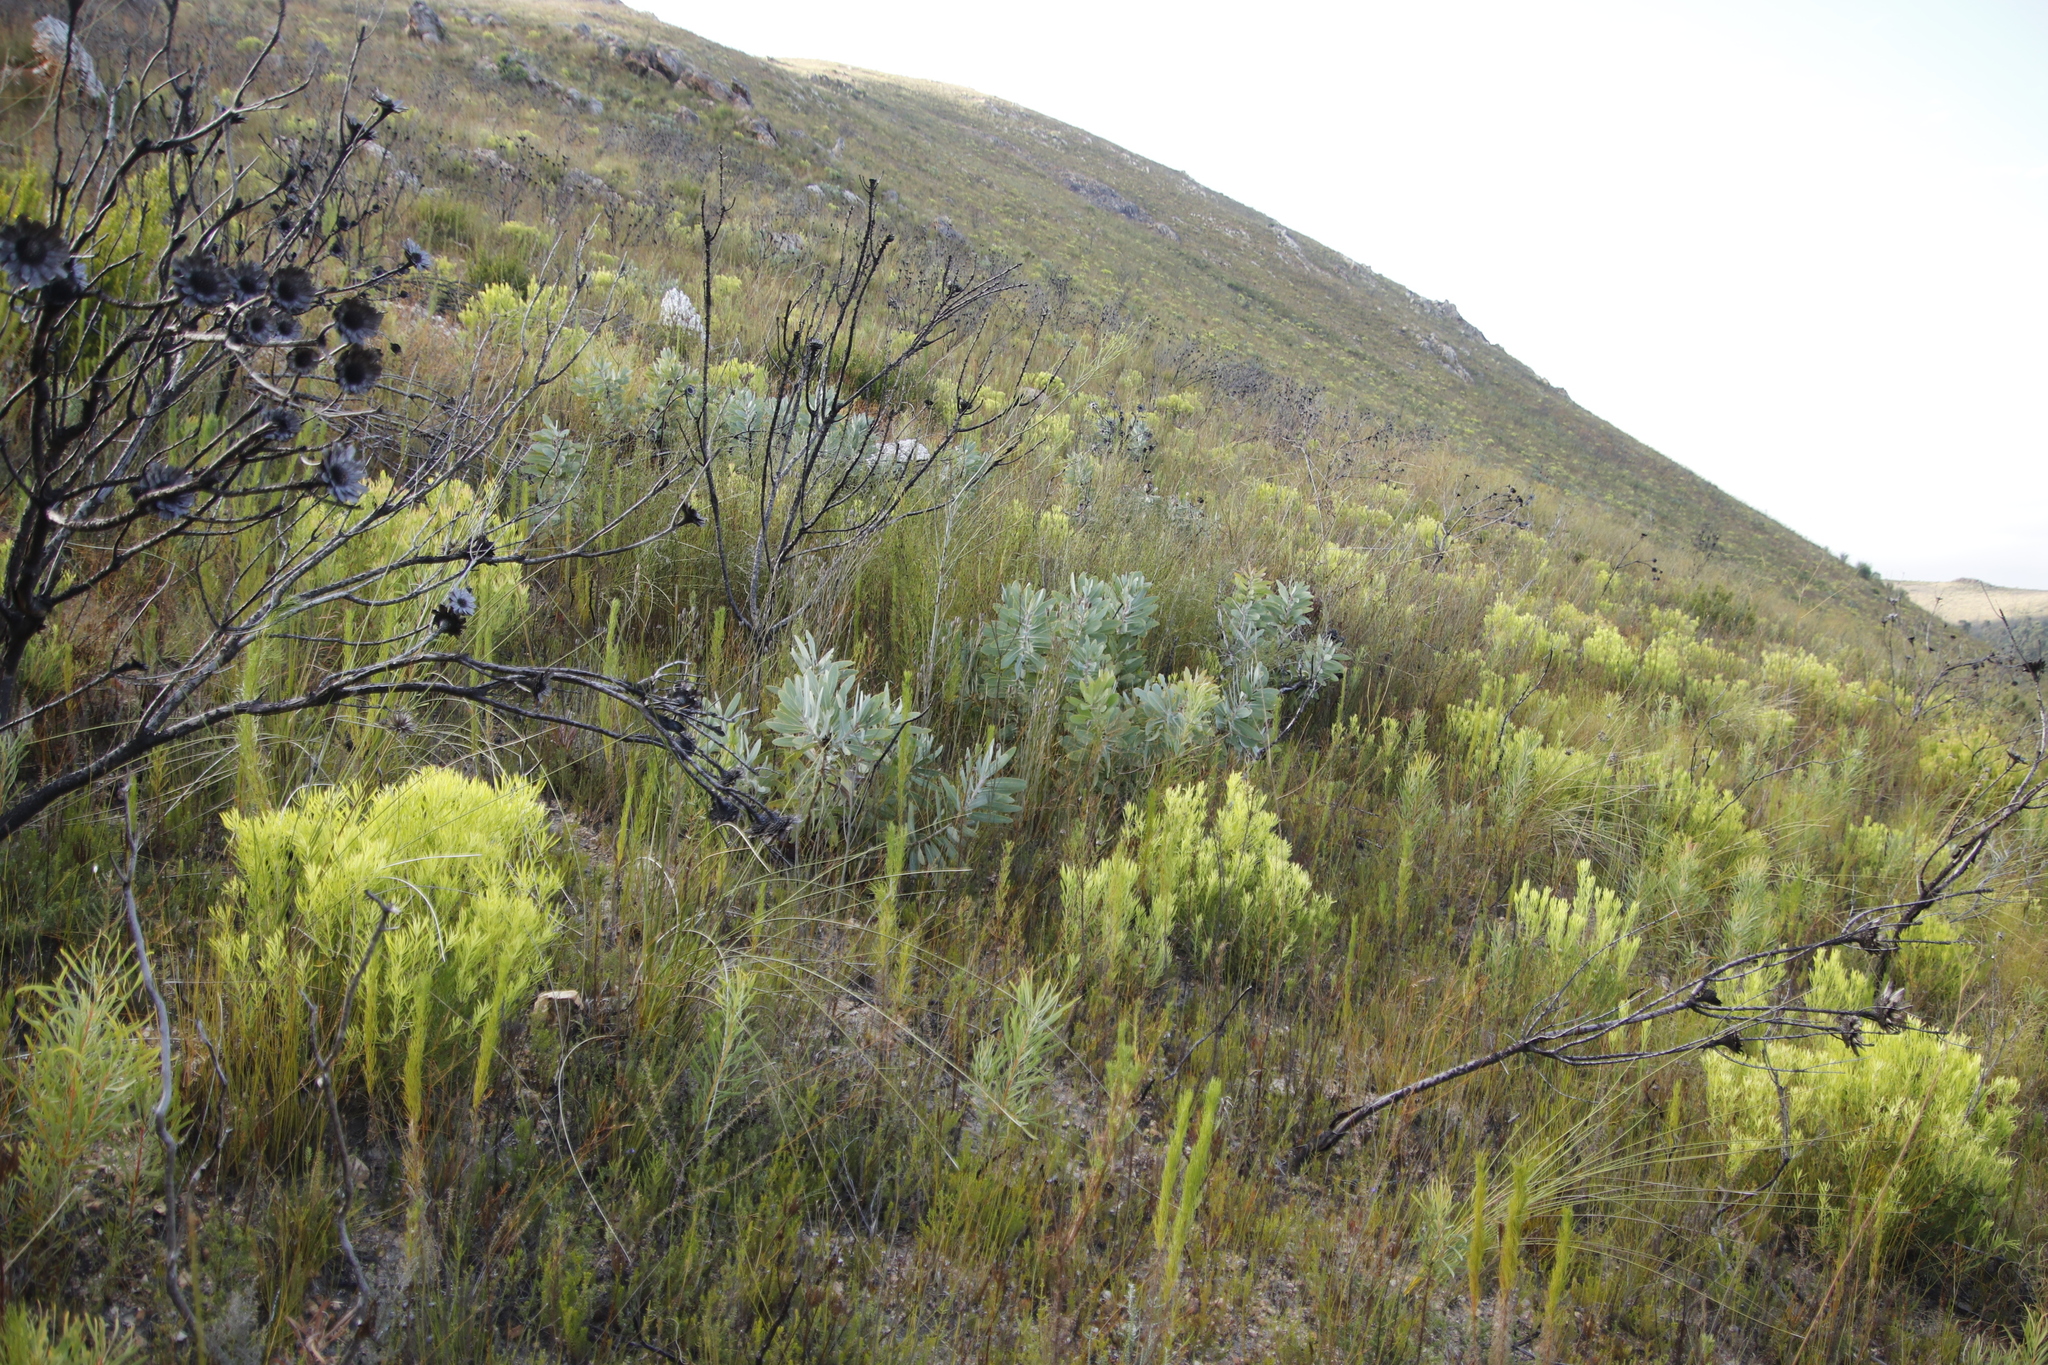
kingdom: Plantae
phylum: Tracheophyta
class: Magnoliopsida
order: Proteales
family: Proteaceae
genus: Protea
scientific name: Protea nitida
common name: Tree protea
